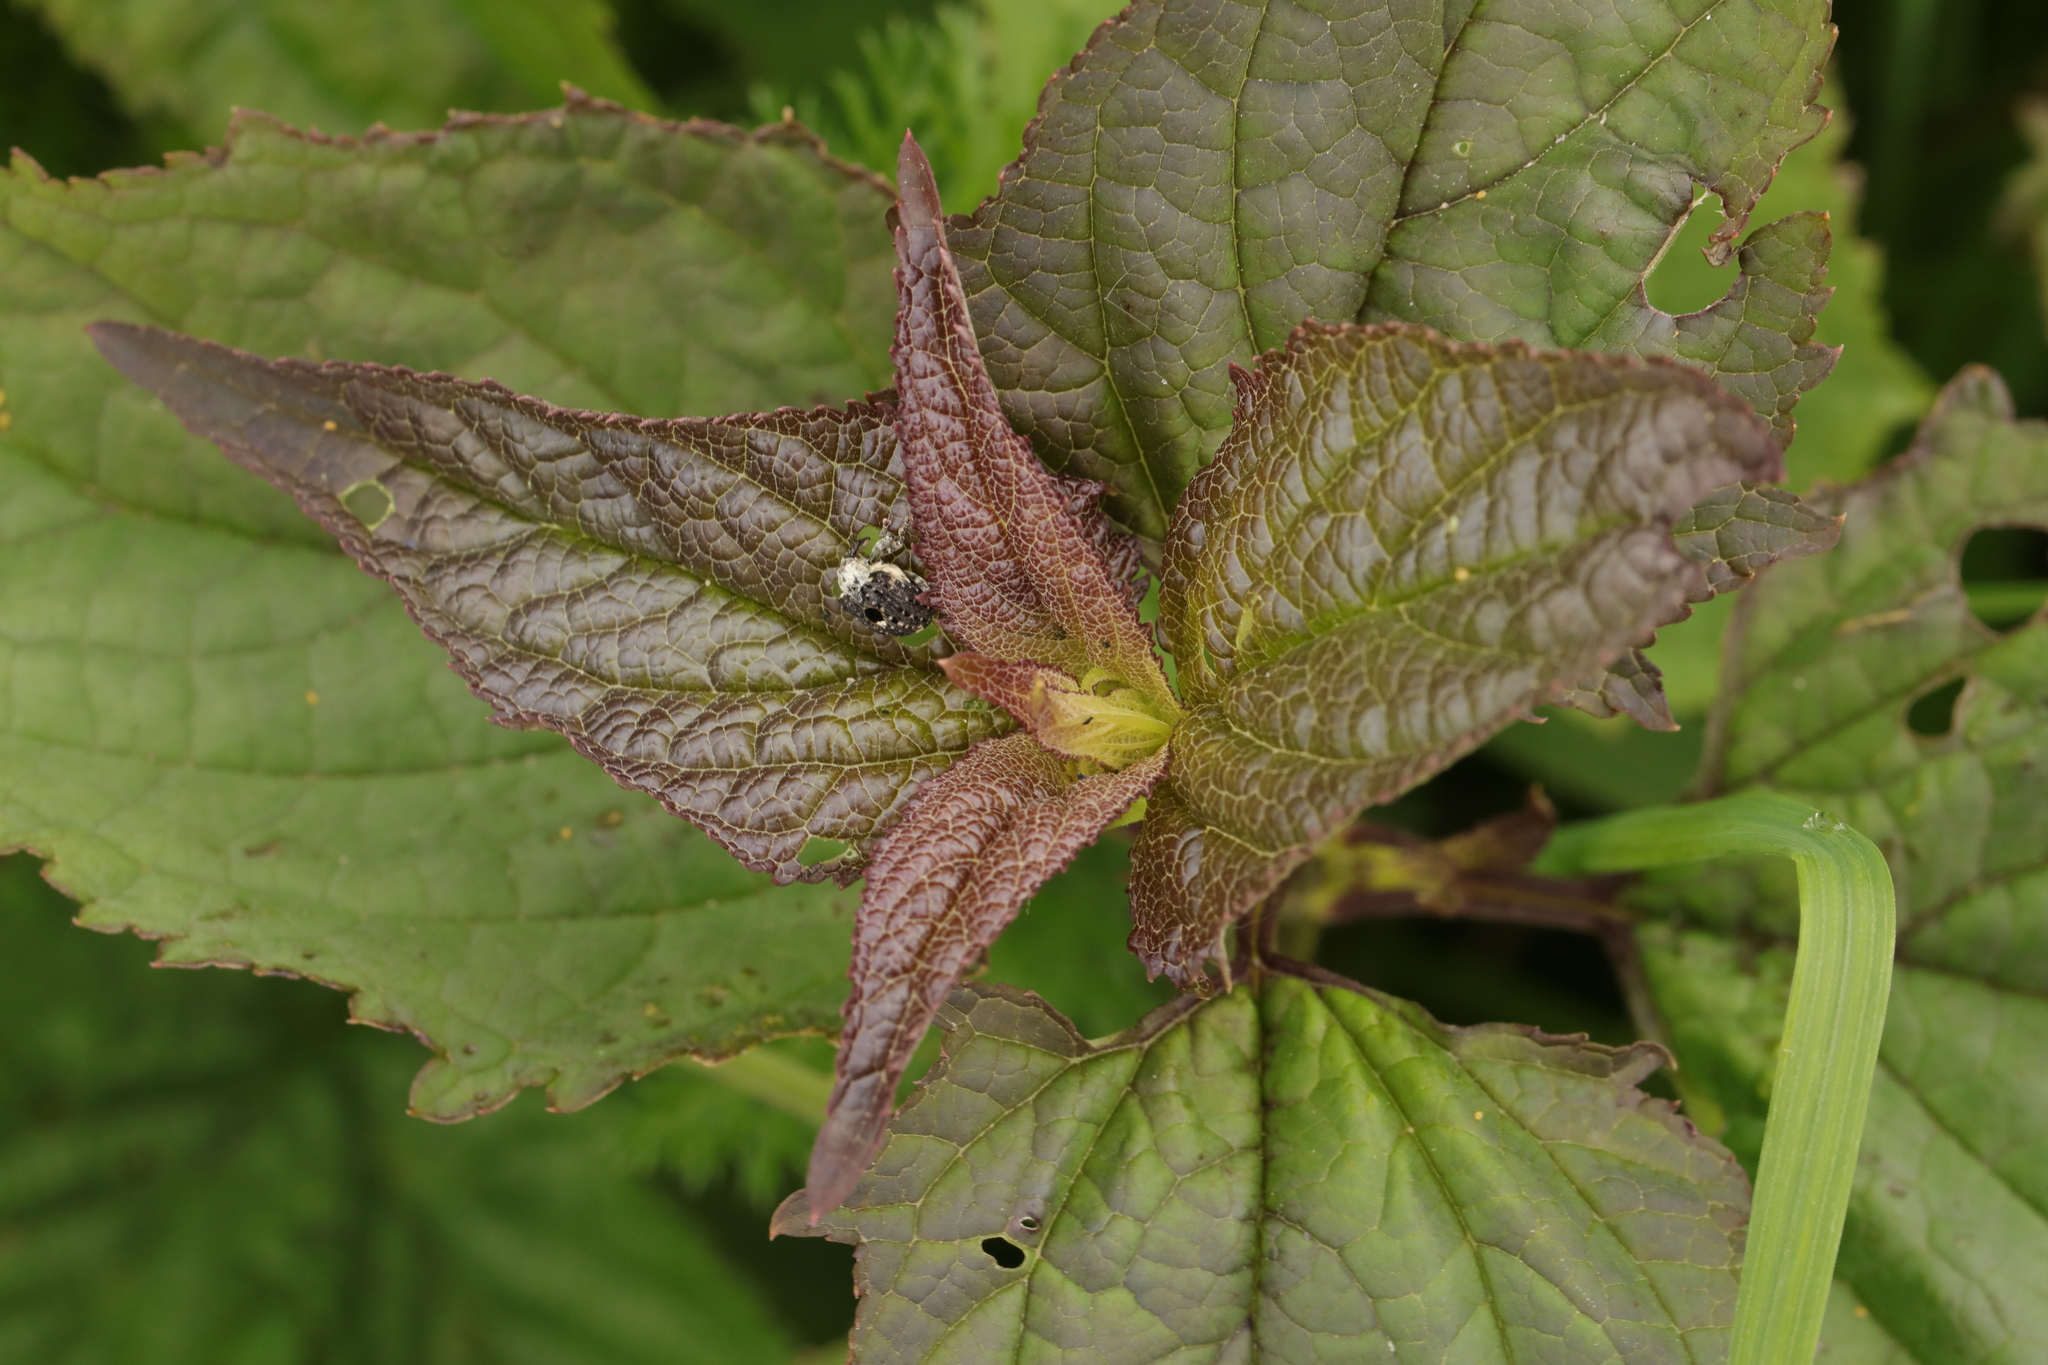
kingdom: Animalia
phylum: Arthropoda
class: Insecta
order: Coleoptera
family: Curculionidae
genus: Cionus
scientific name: Cionus scrophulariae
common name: Common figwort weevil
